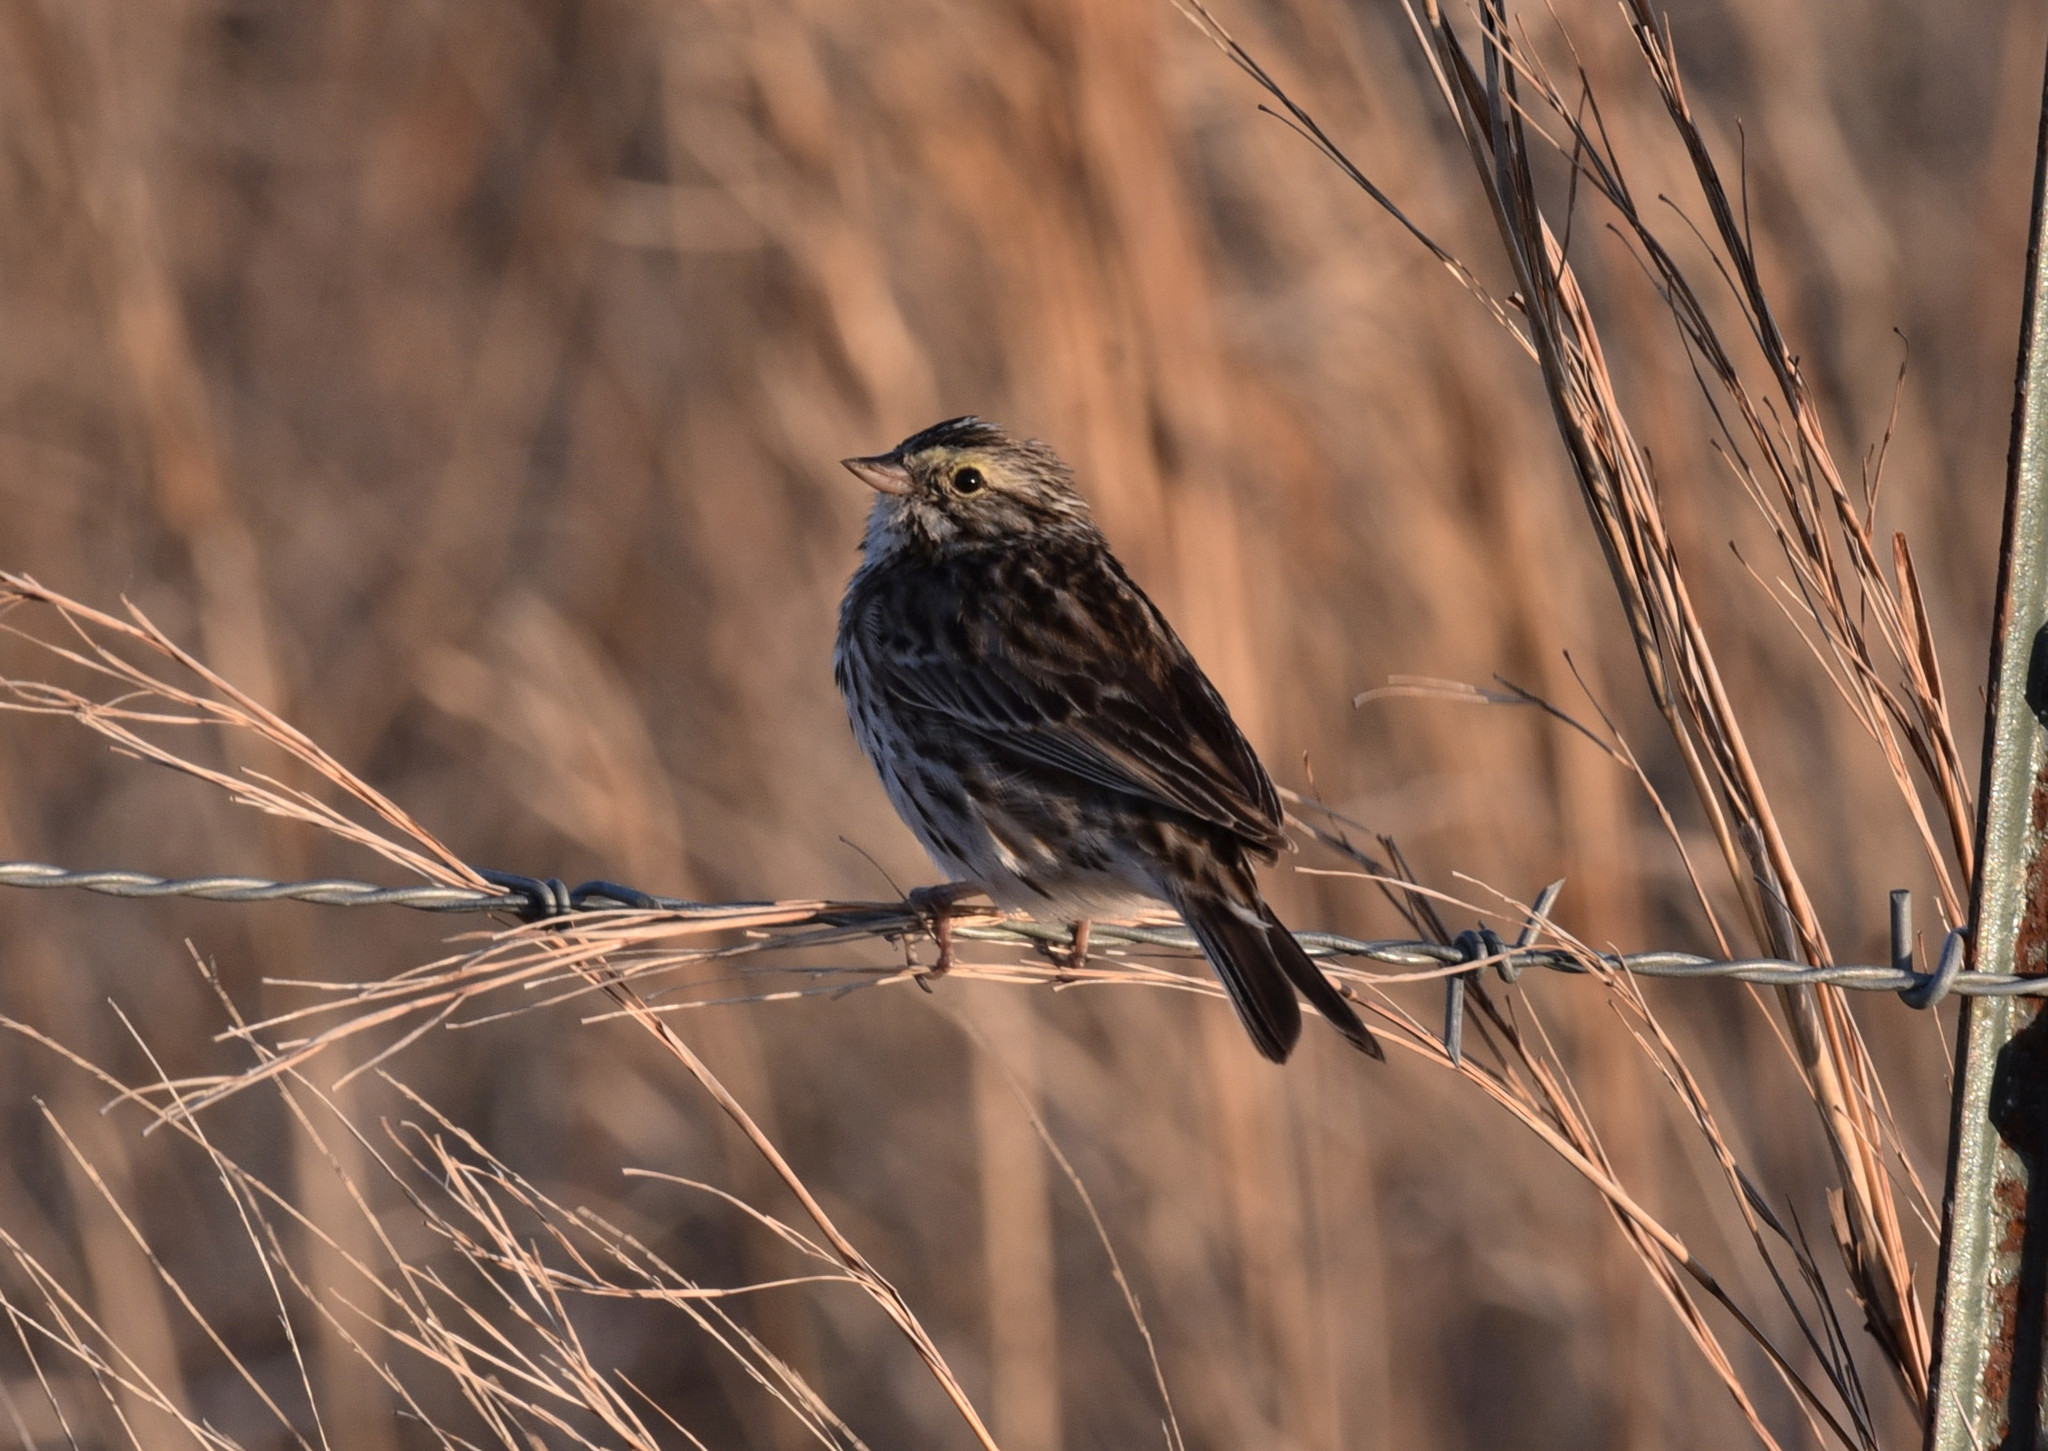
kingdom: Animalia
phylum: Chordata
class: Aves
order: Passeriformes
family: Passerellidae
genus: Passerculus
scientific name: Passerculus sandwichensis
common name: Savannah sparrow
